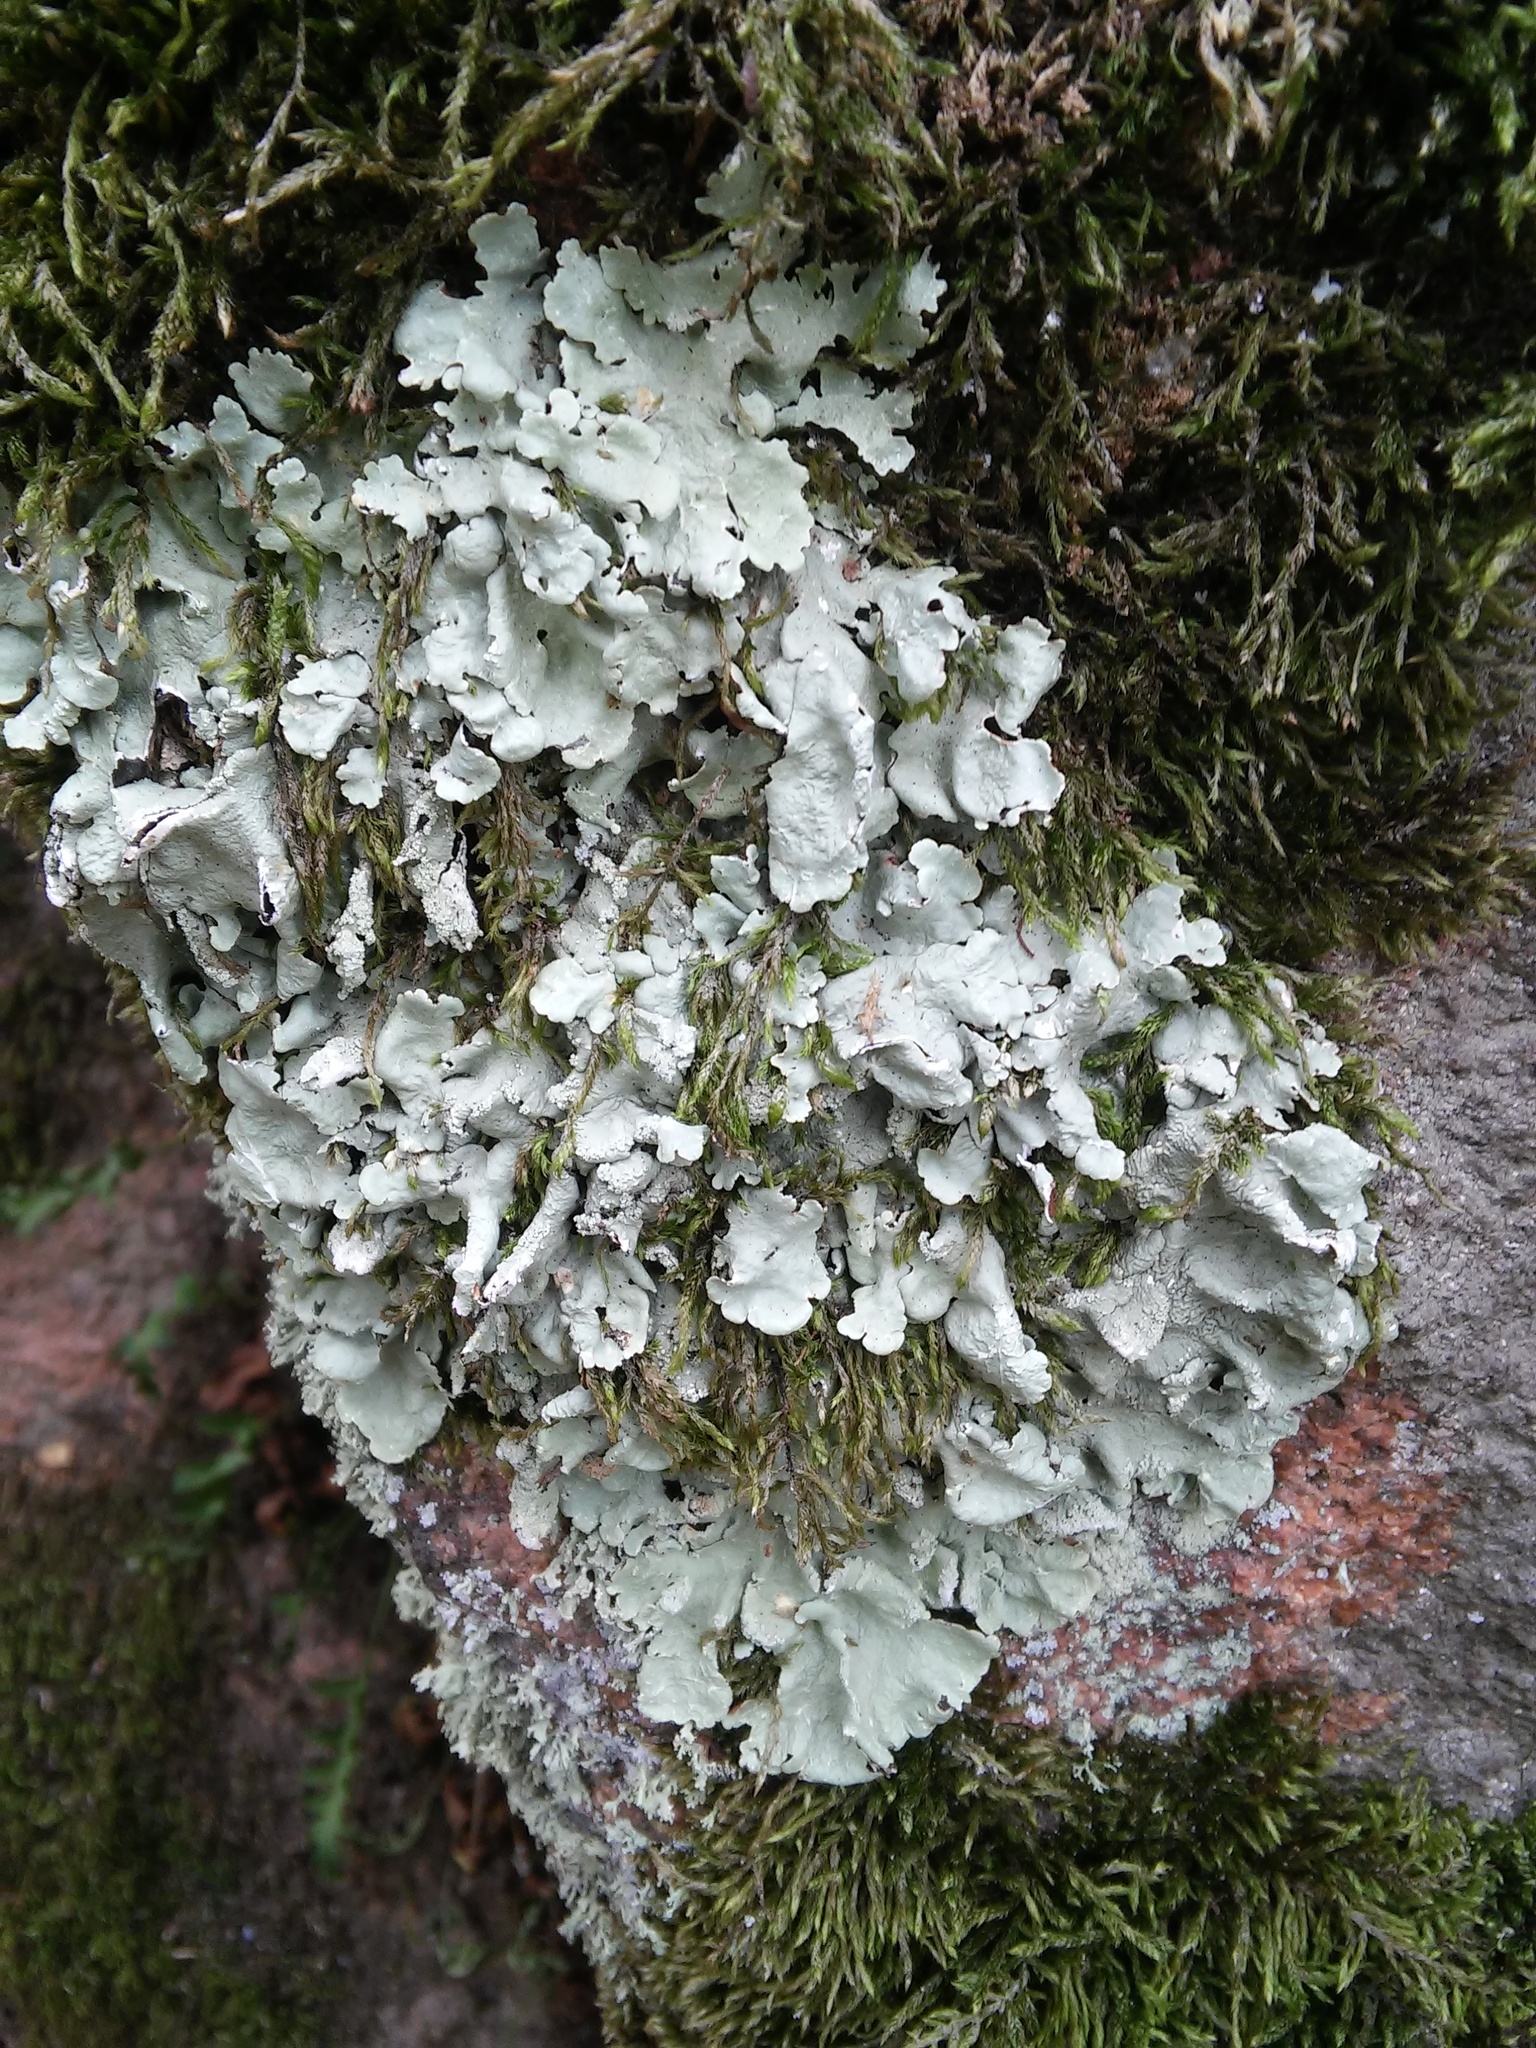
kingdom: Fungi
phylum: Ascomycota
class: Lecanoromycetes
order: Lecanorales
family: Parmeliaceae
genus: Flavoparmelia
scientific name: Flavoparmelia caperata
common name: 40-mile per hour lichen
